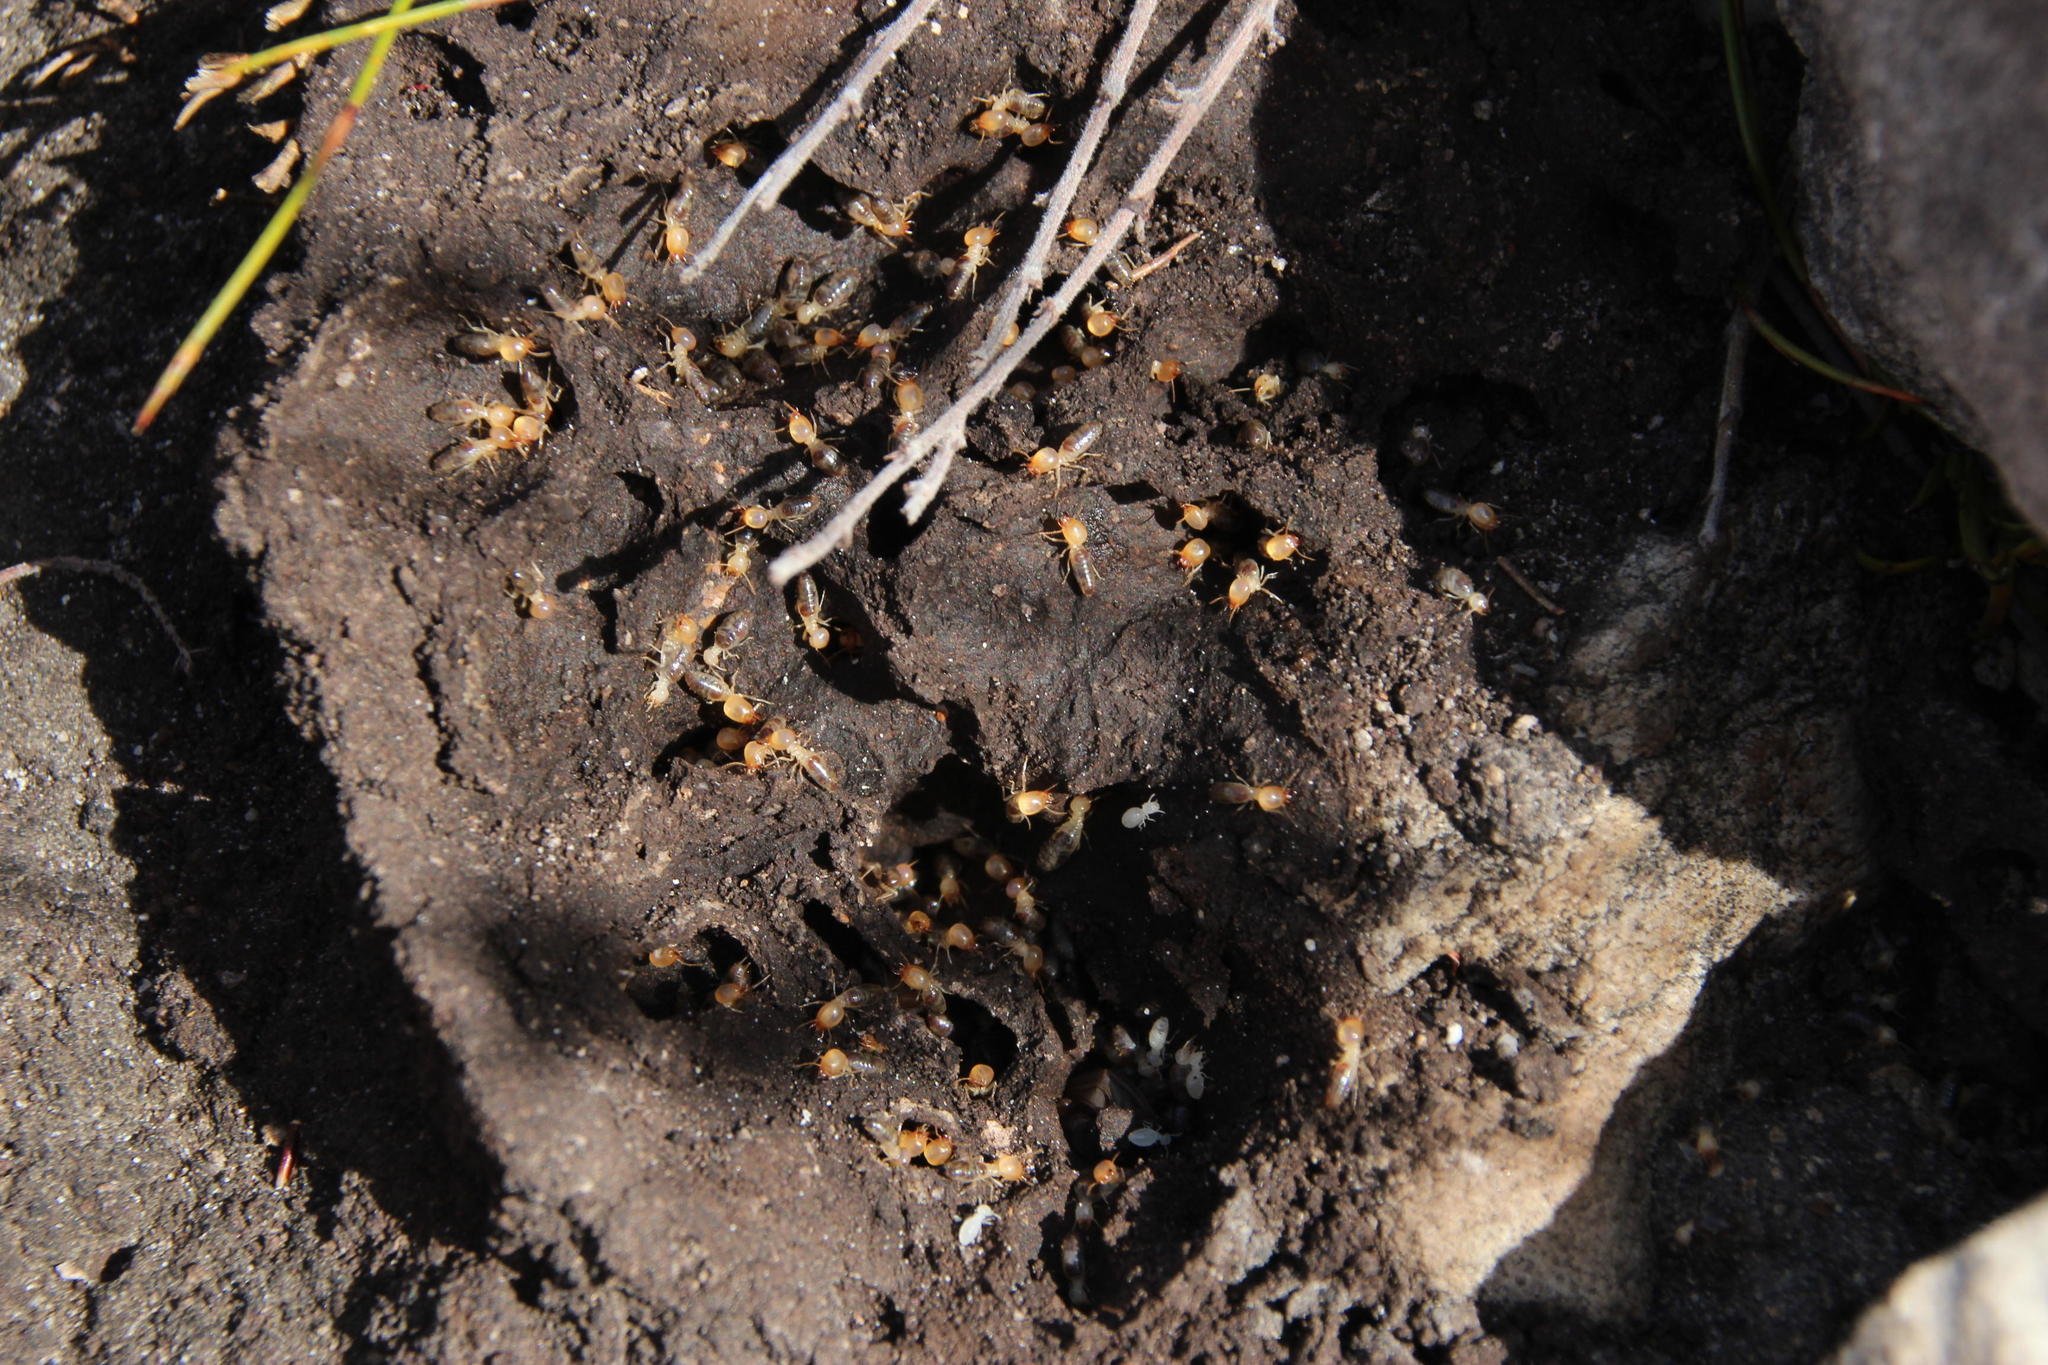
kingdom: Animalia
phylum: Arthropoda
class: Insecta
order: Blattodea
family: Termitidae
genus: Amitermes
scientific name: Amitermes hastatus
